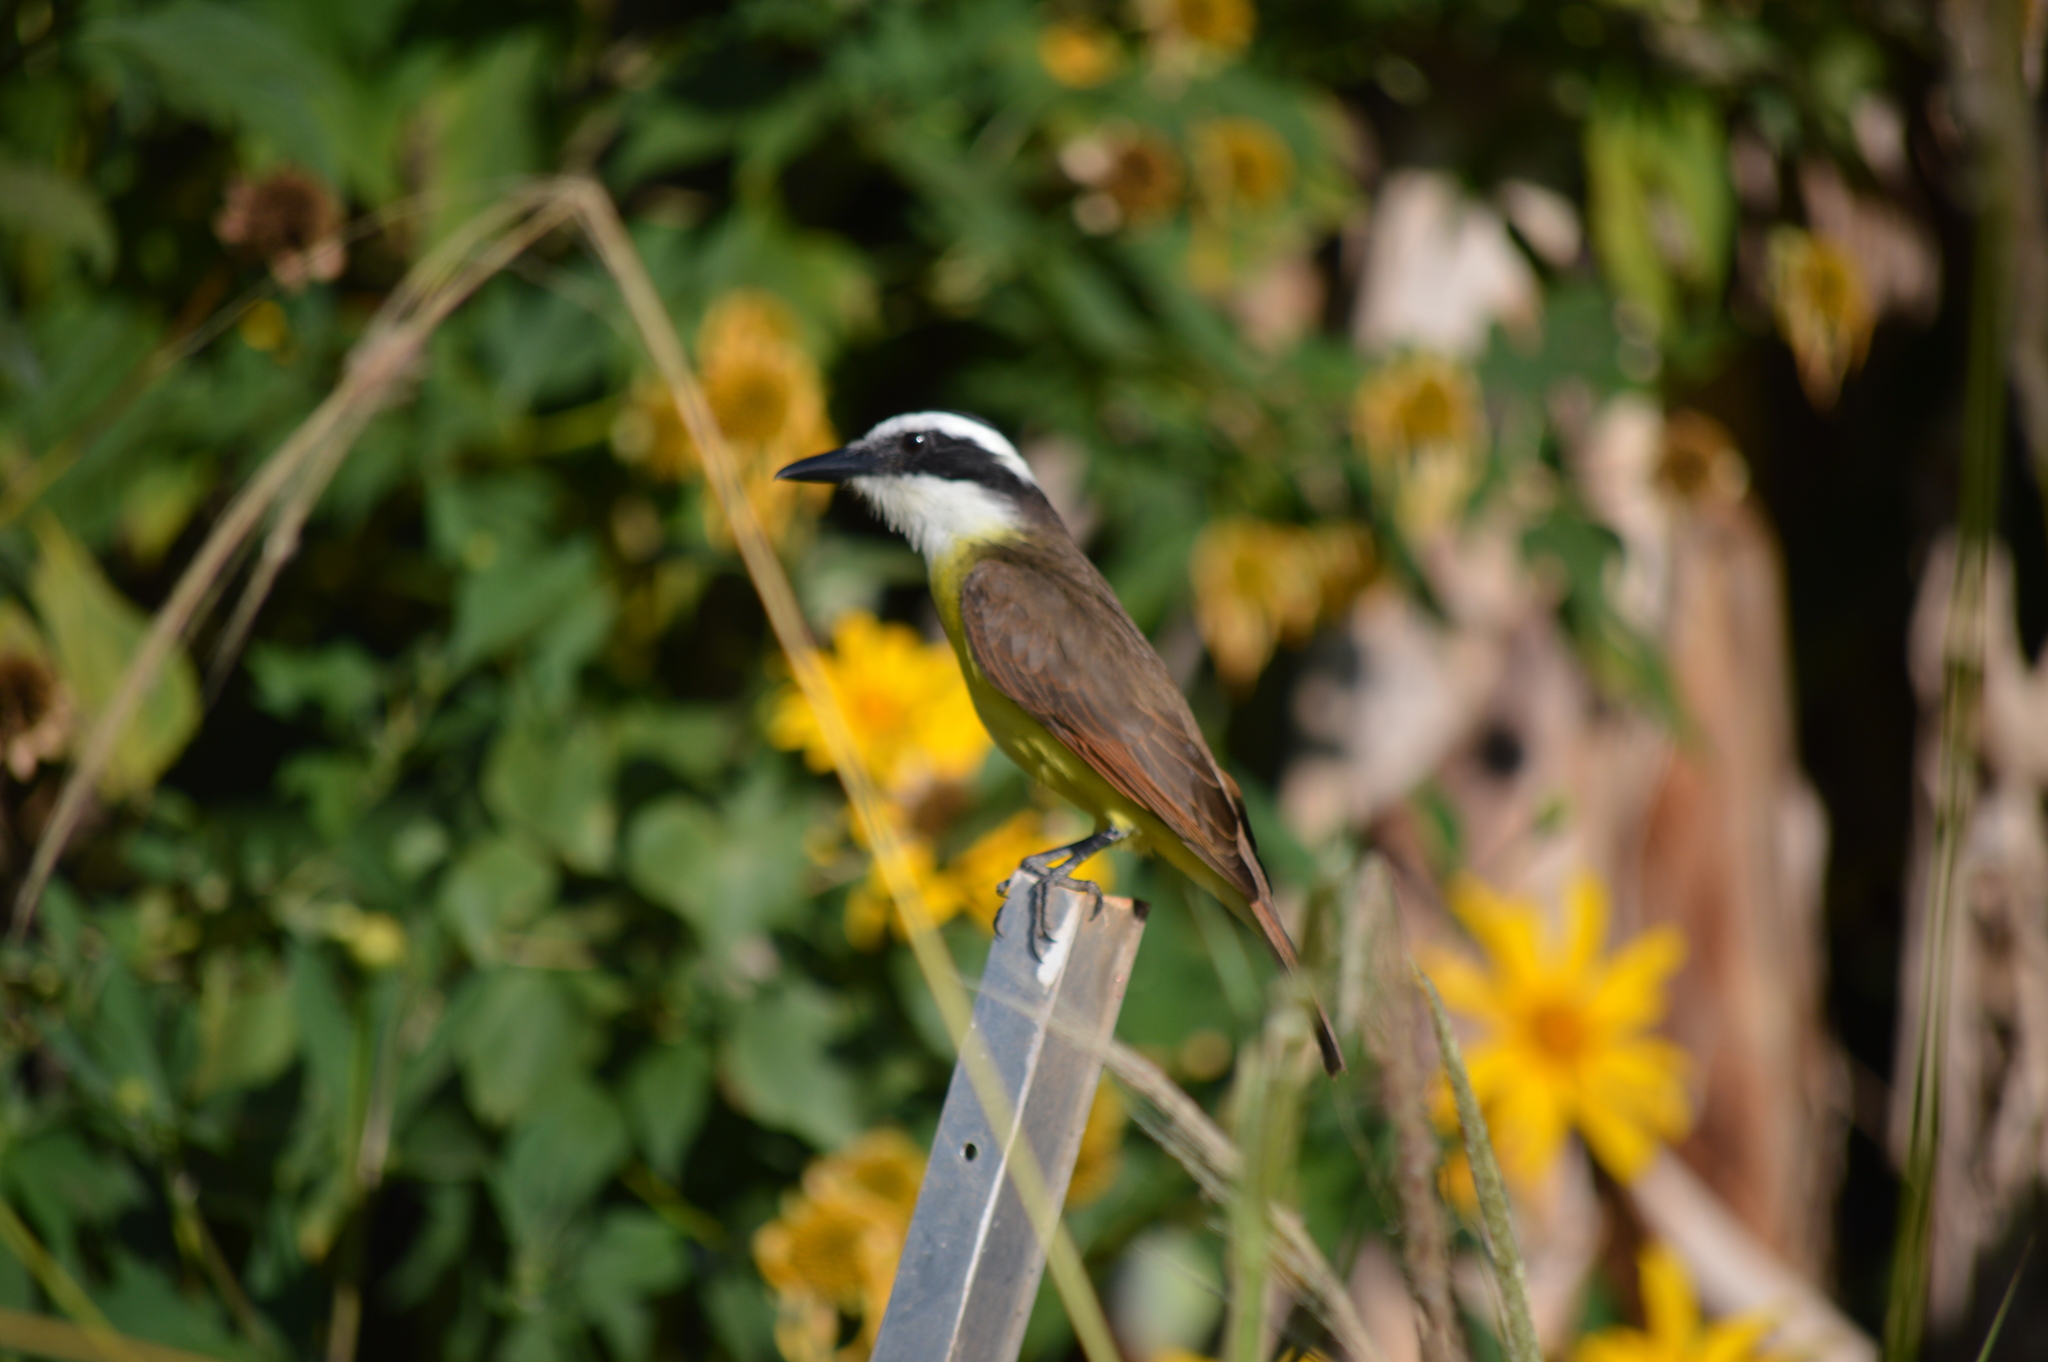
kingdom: Animalia
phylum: Chordata
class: Aves
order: Passeriformes
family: Tyrannidae
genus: Pitangus
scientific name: Pitangus sulphuratus
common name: Great kiskadee
